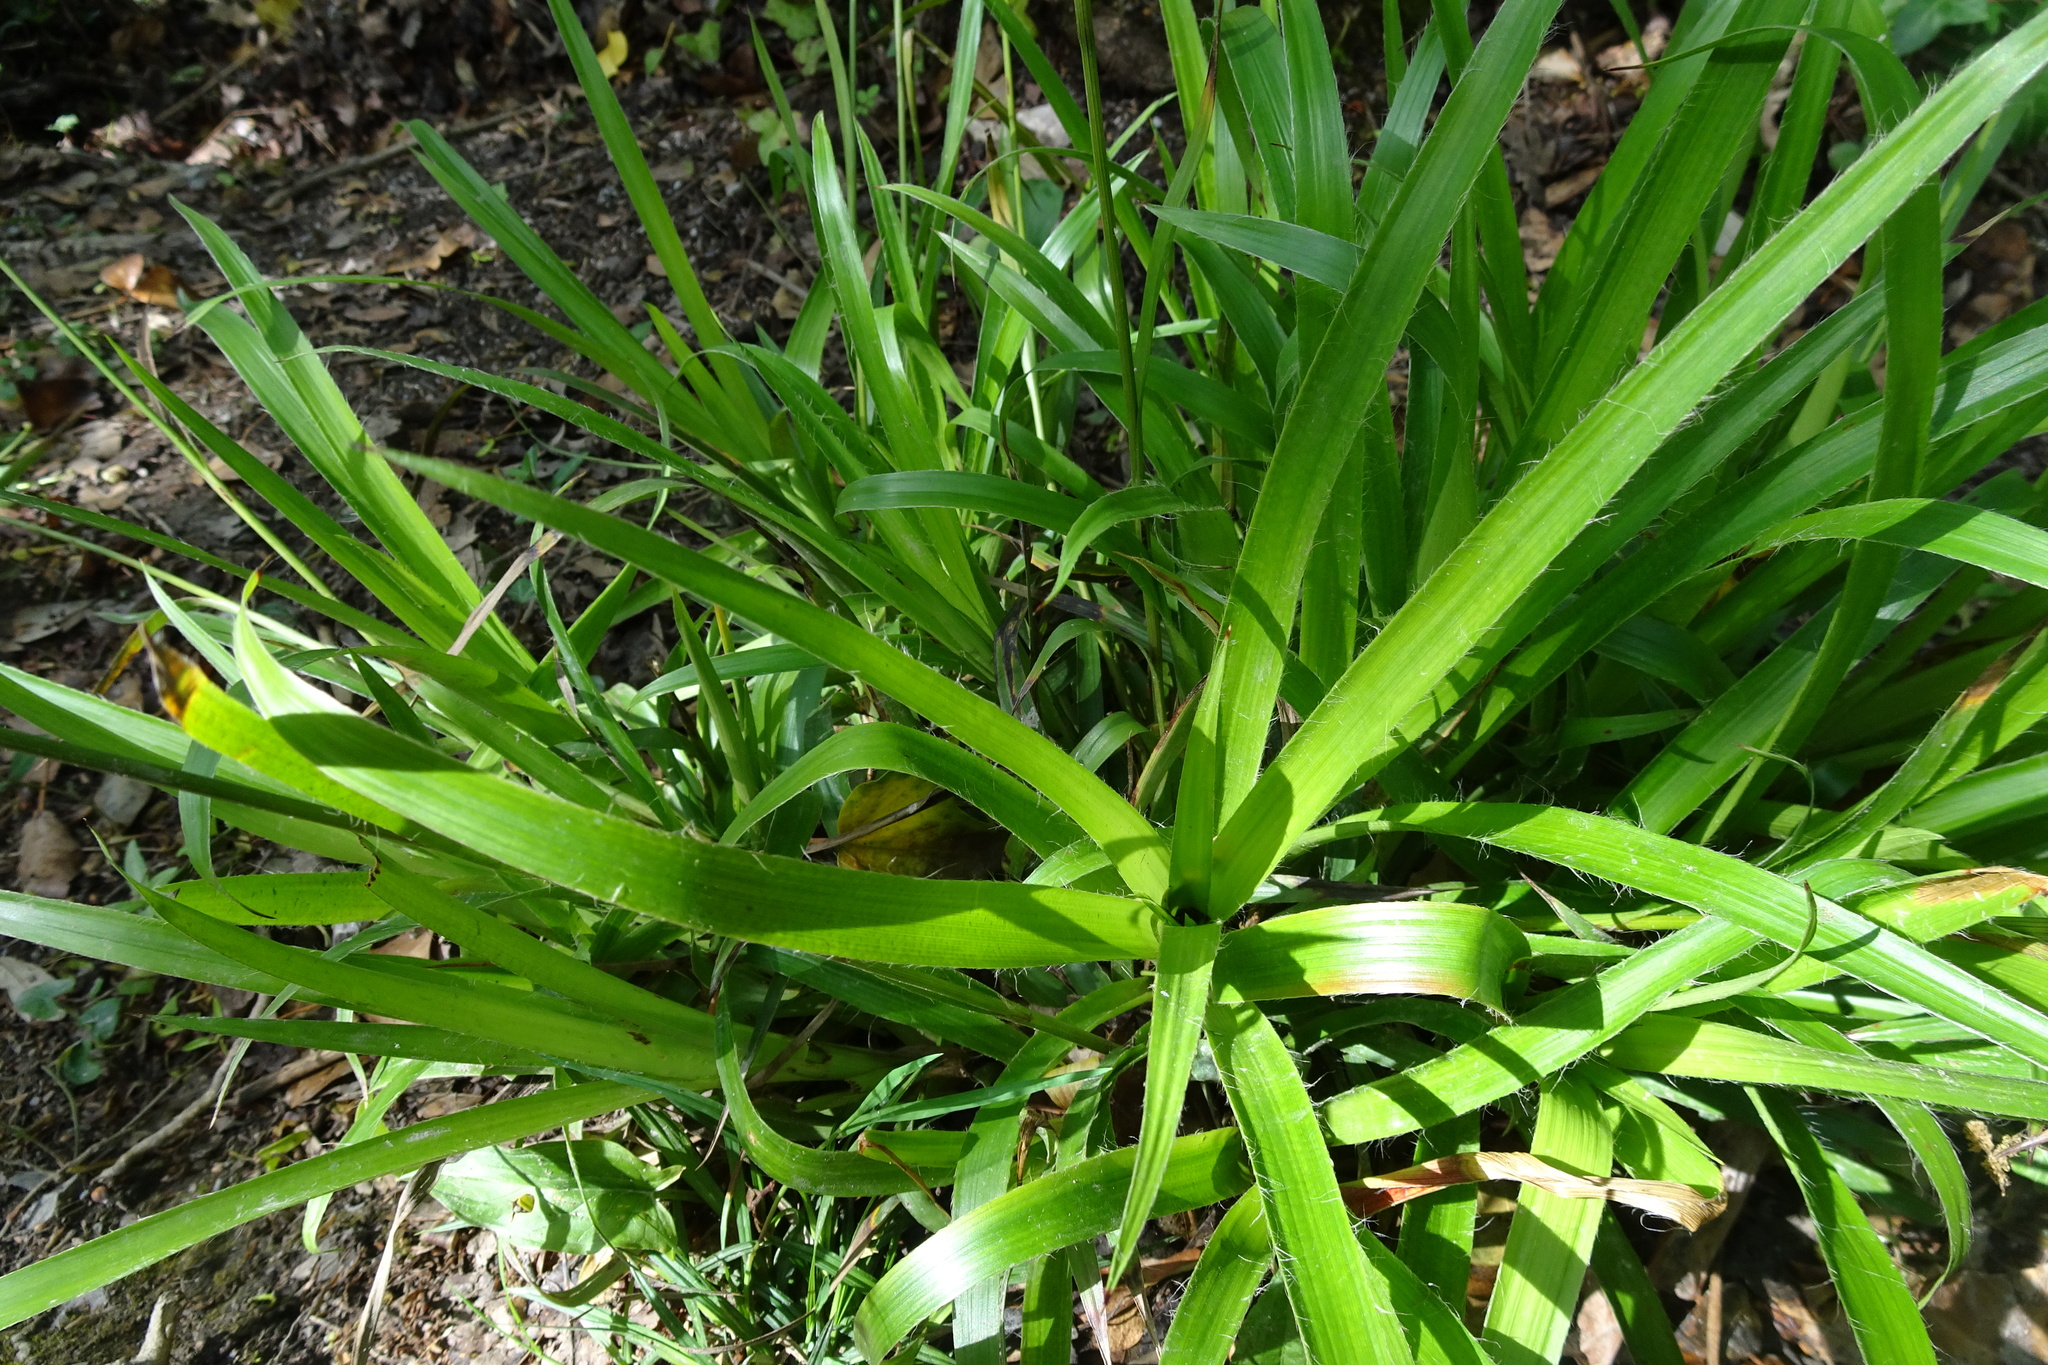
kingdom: Plantae
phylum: Tracheophyta
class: Liliopsida
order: Poales
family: Juncaceae
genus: Luzula
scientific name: Luzula sylvatica
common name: Great wood-rush
